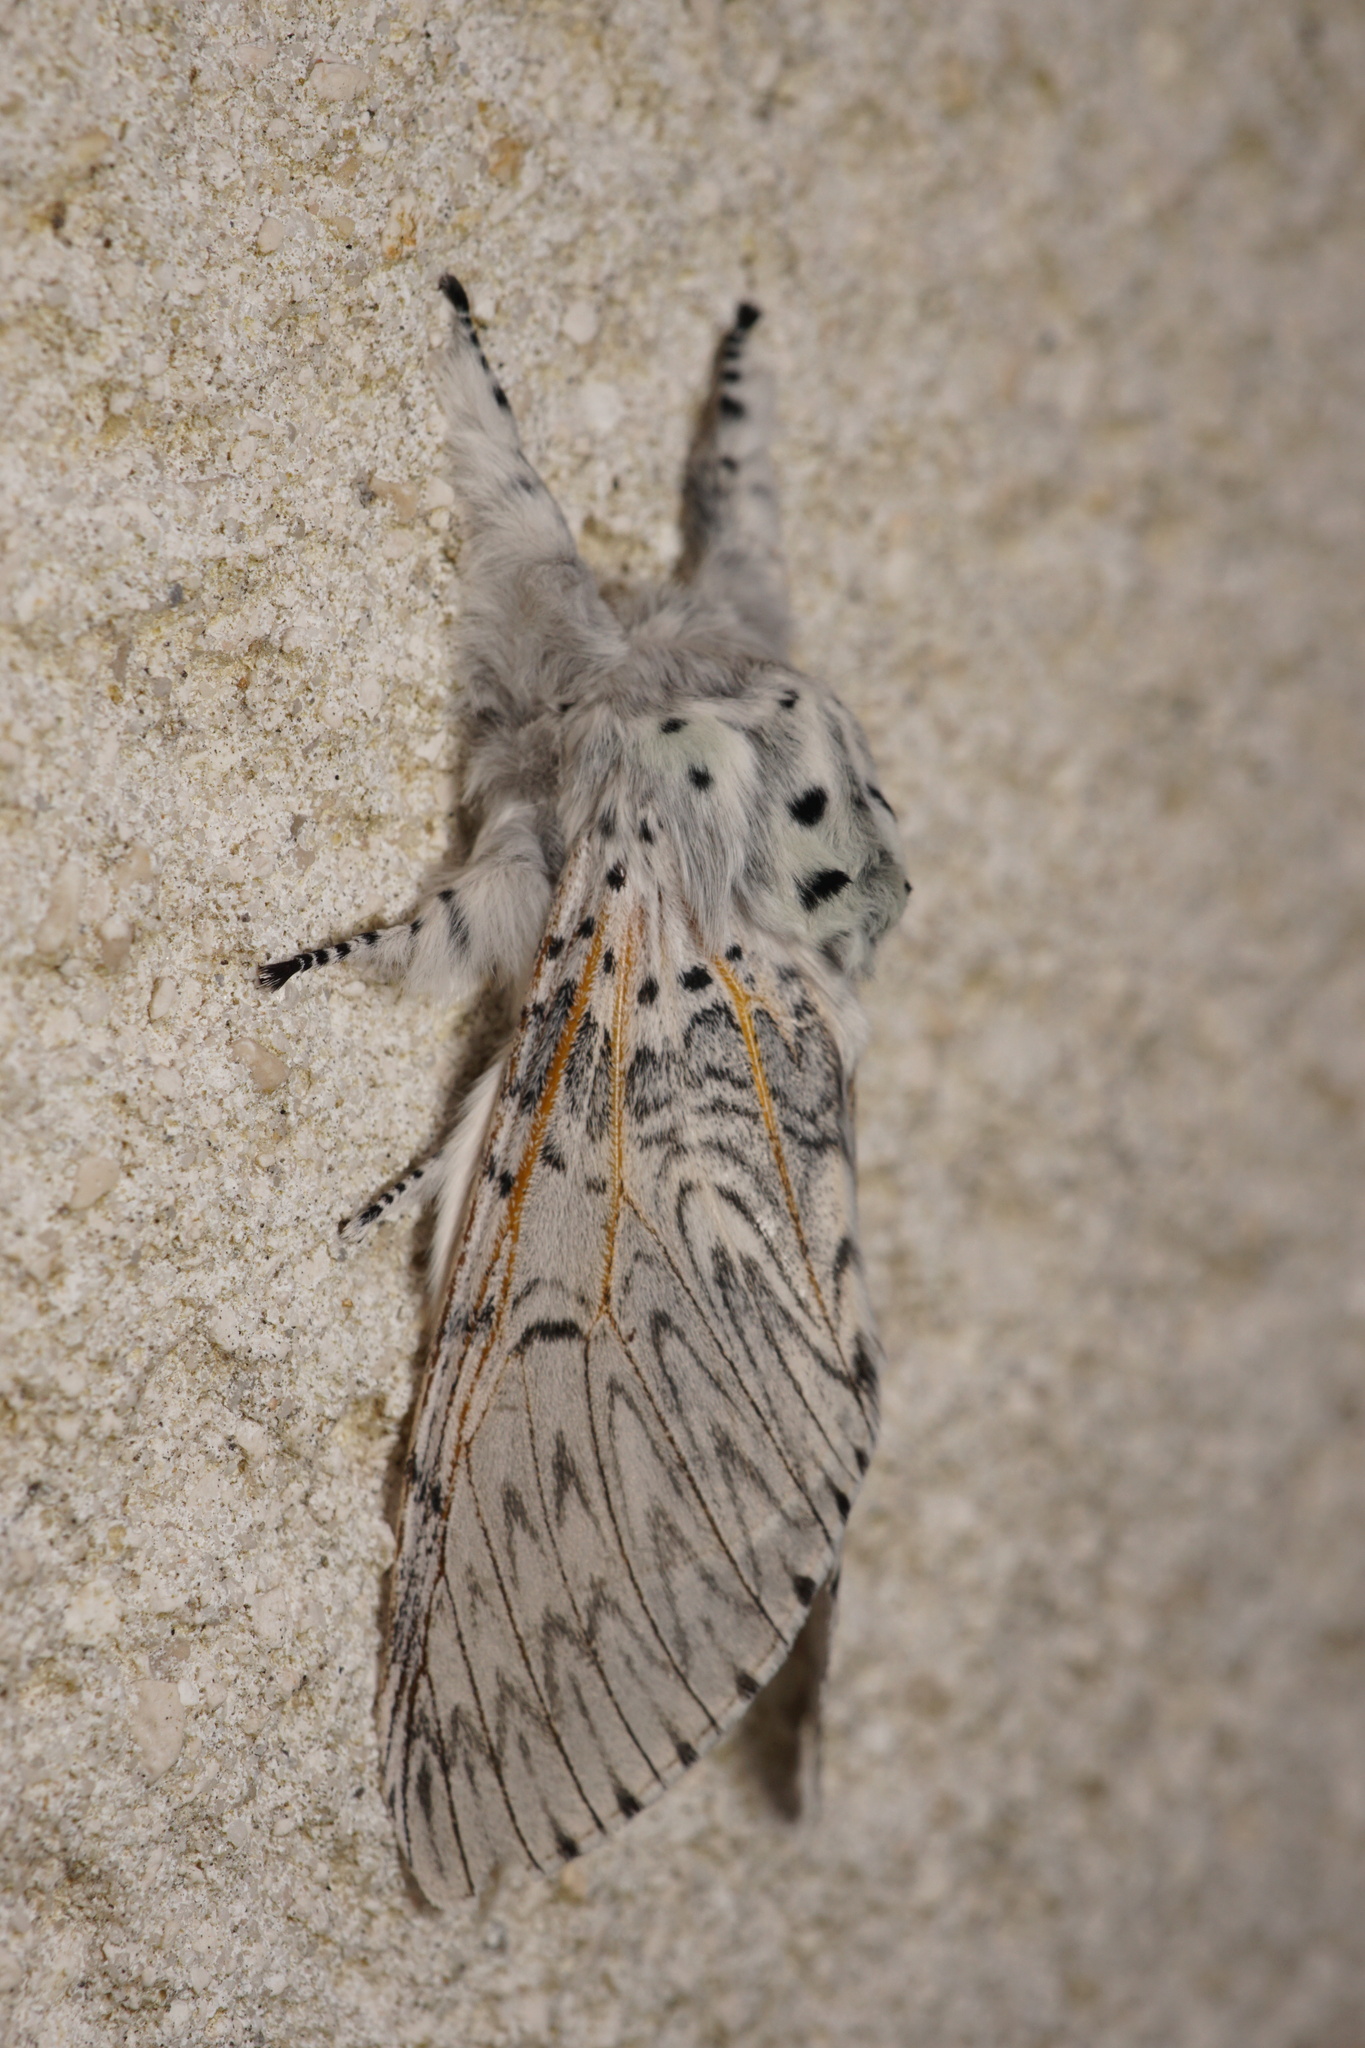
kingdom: Animalia
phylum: Arthropoda
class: Insecta
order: Lepidoptera
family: Notodontidae
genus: Cerura
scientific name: Cerura vinula
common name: Puss moth
